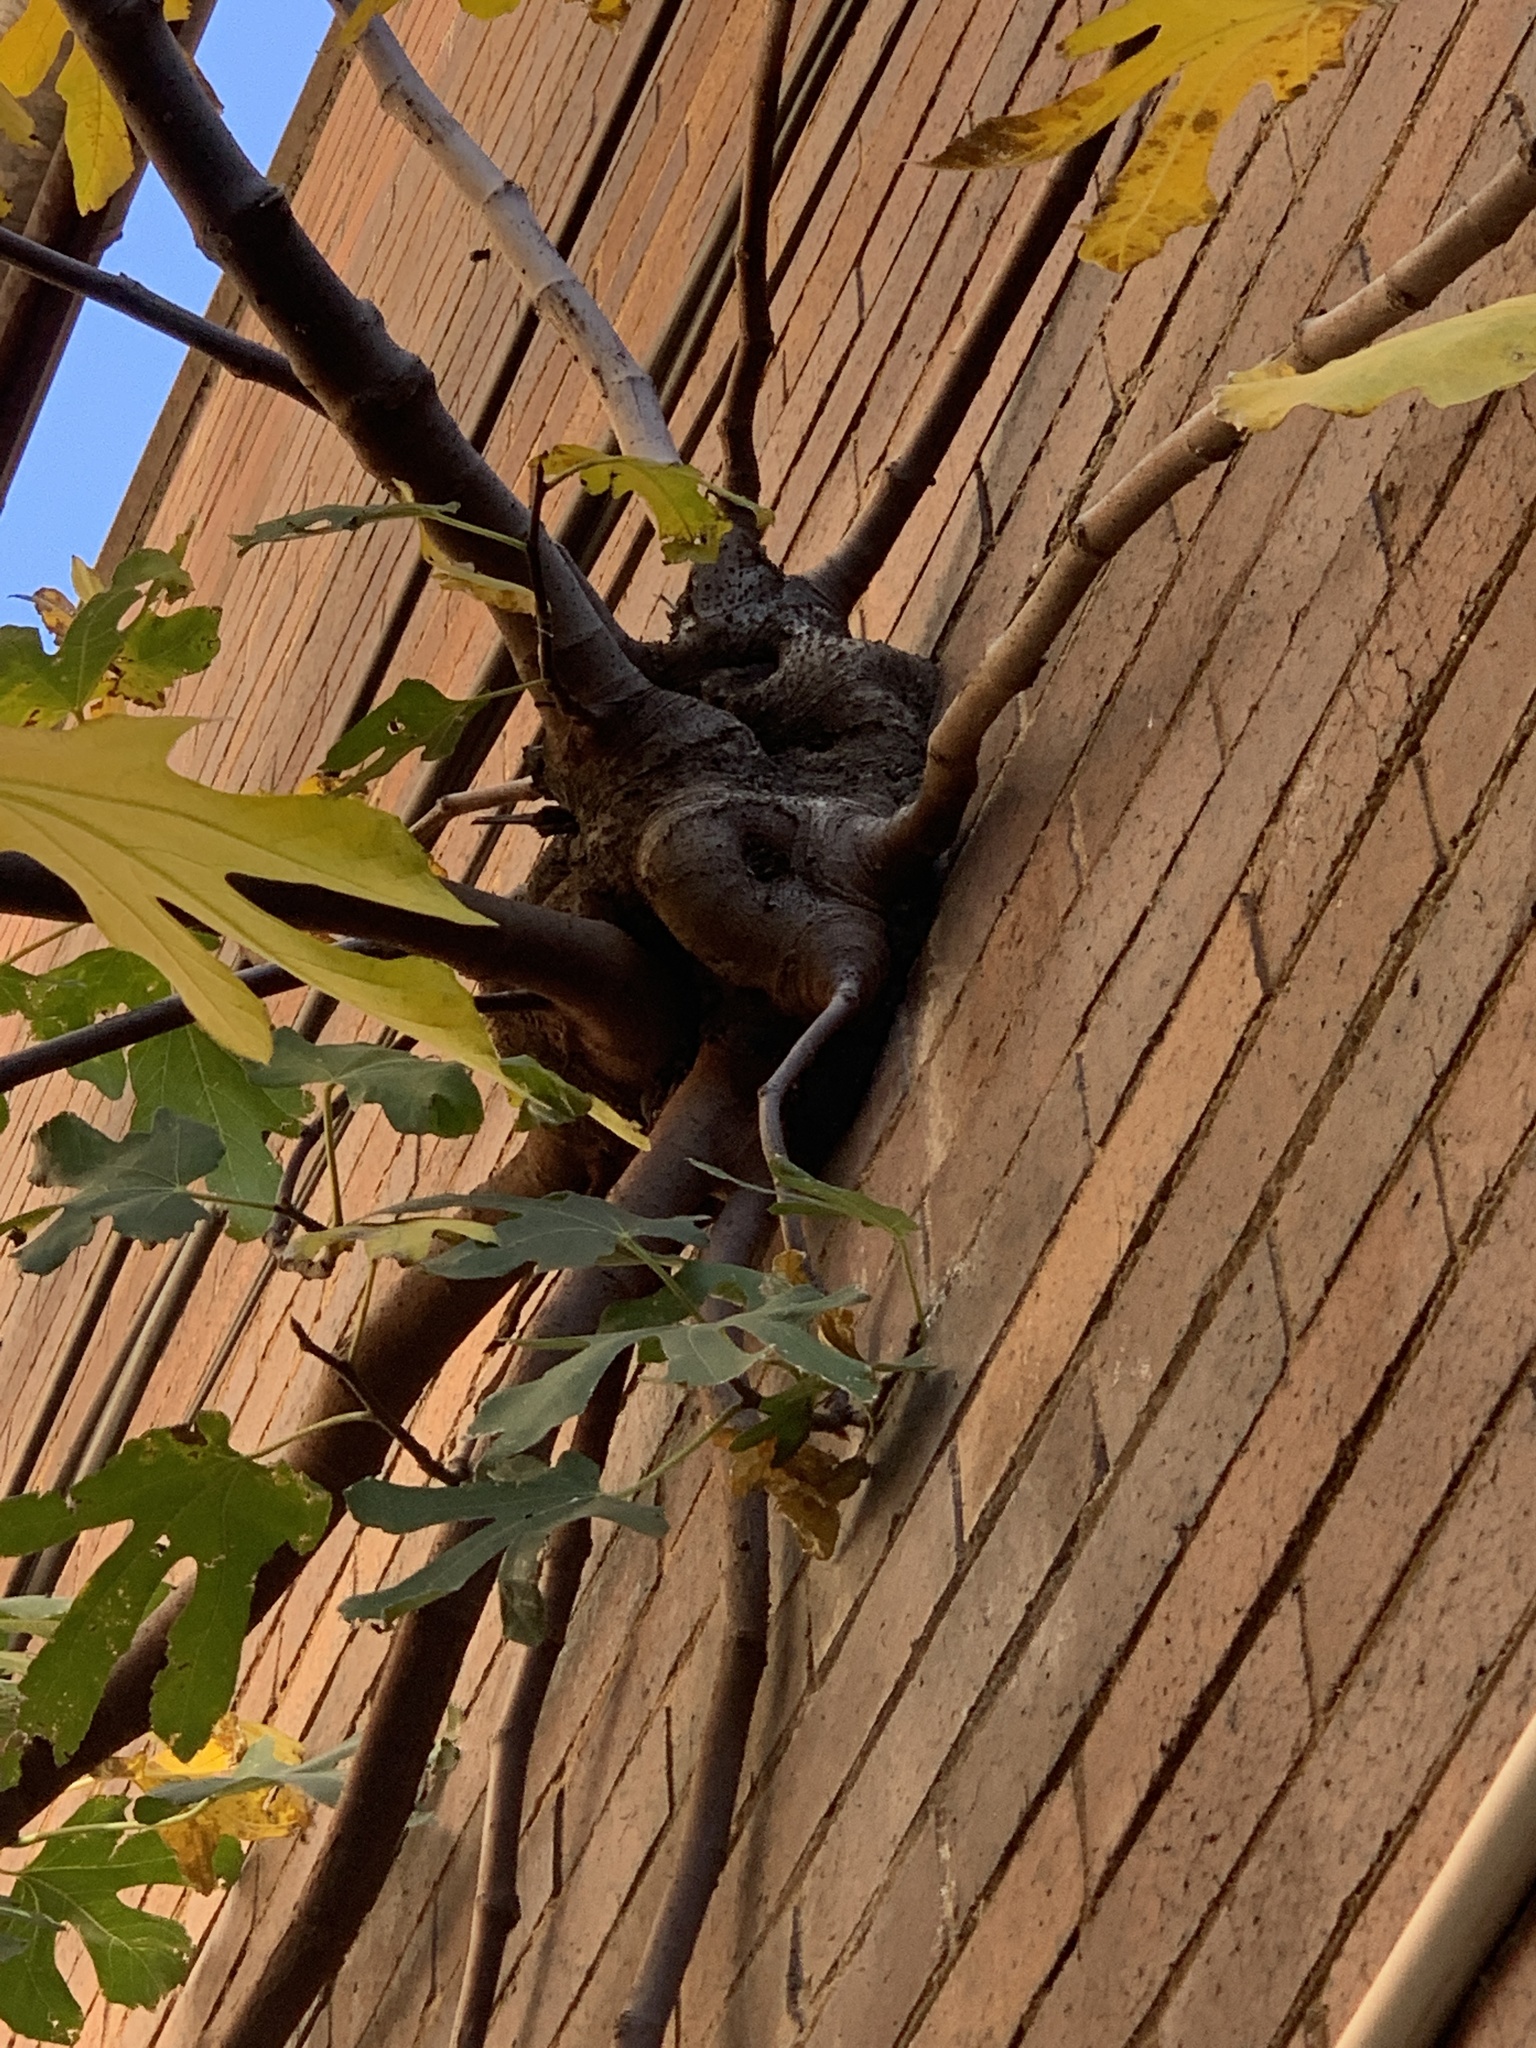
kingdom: Plantae
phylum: Tracheophyta
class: Magnoliopsida
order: Rosales
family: Moraceae
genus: Ficus
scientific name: Ficus carica
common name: Fig
